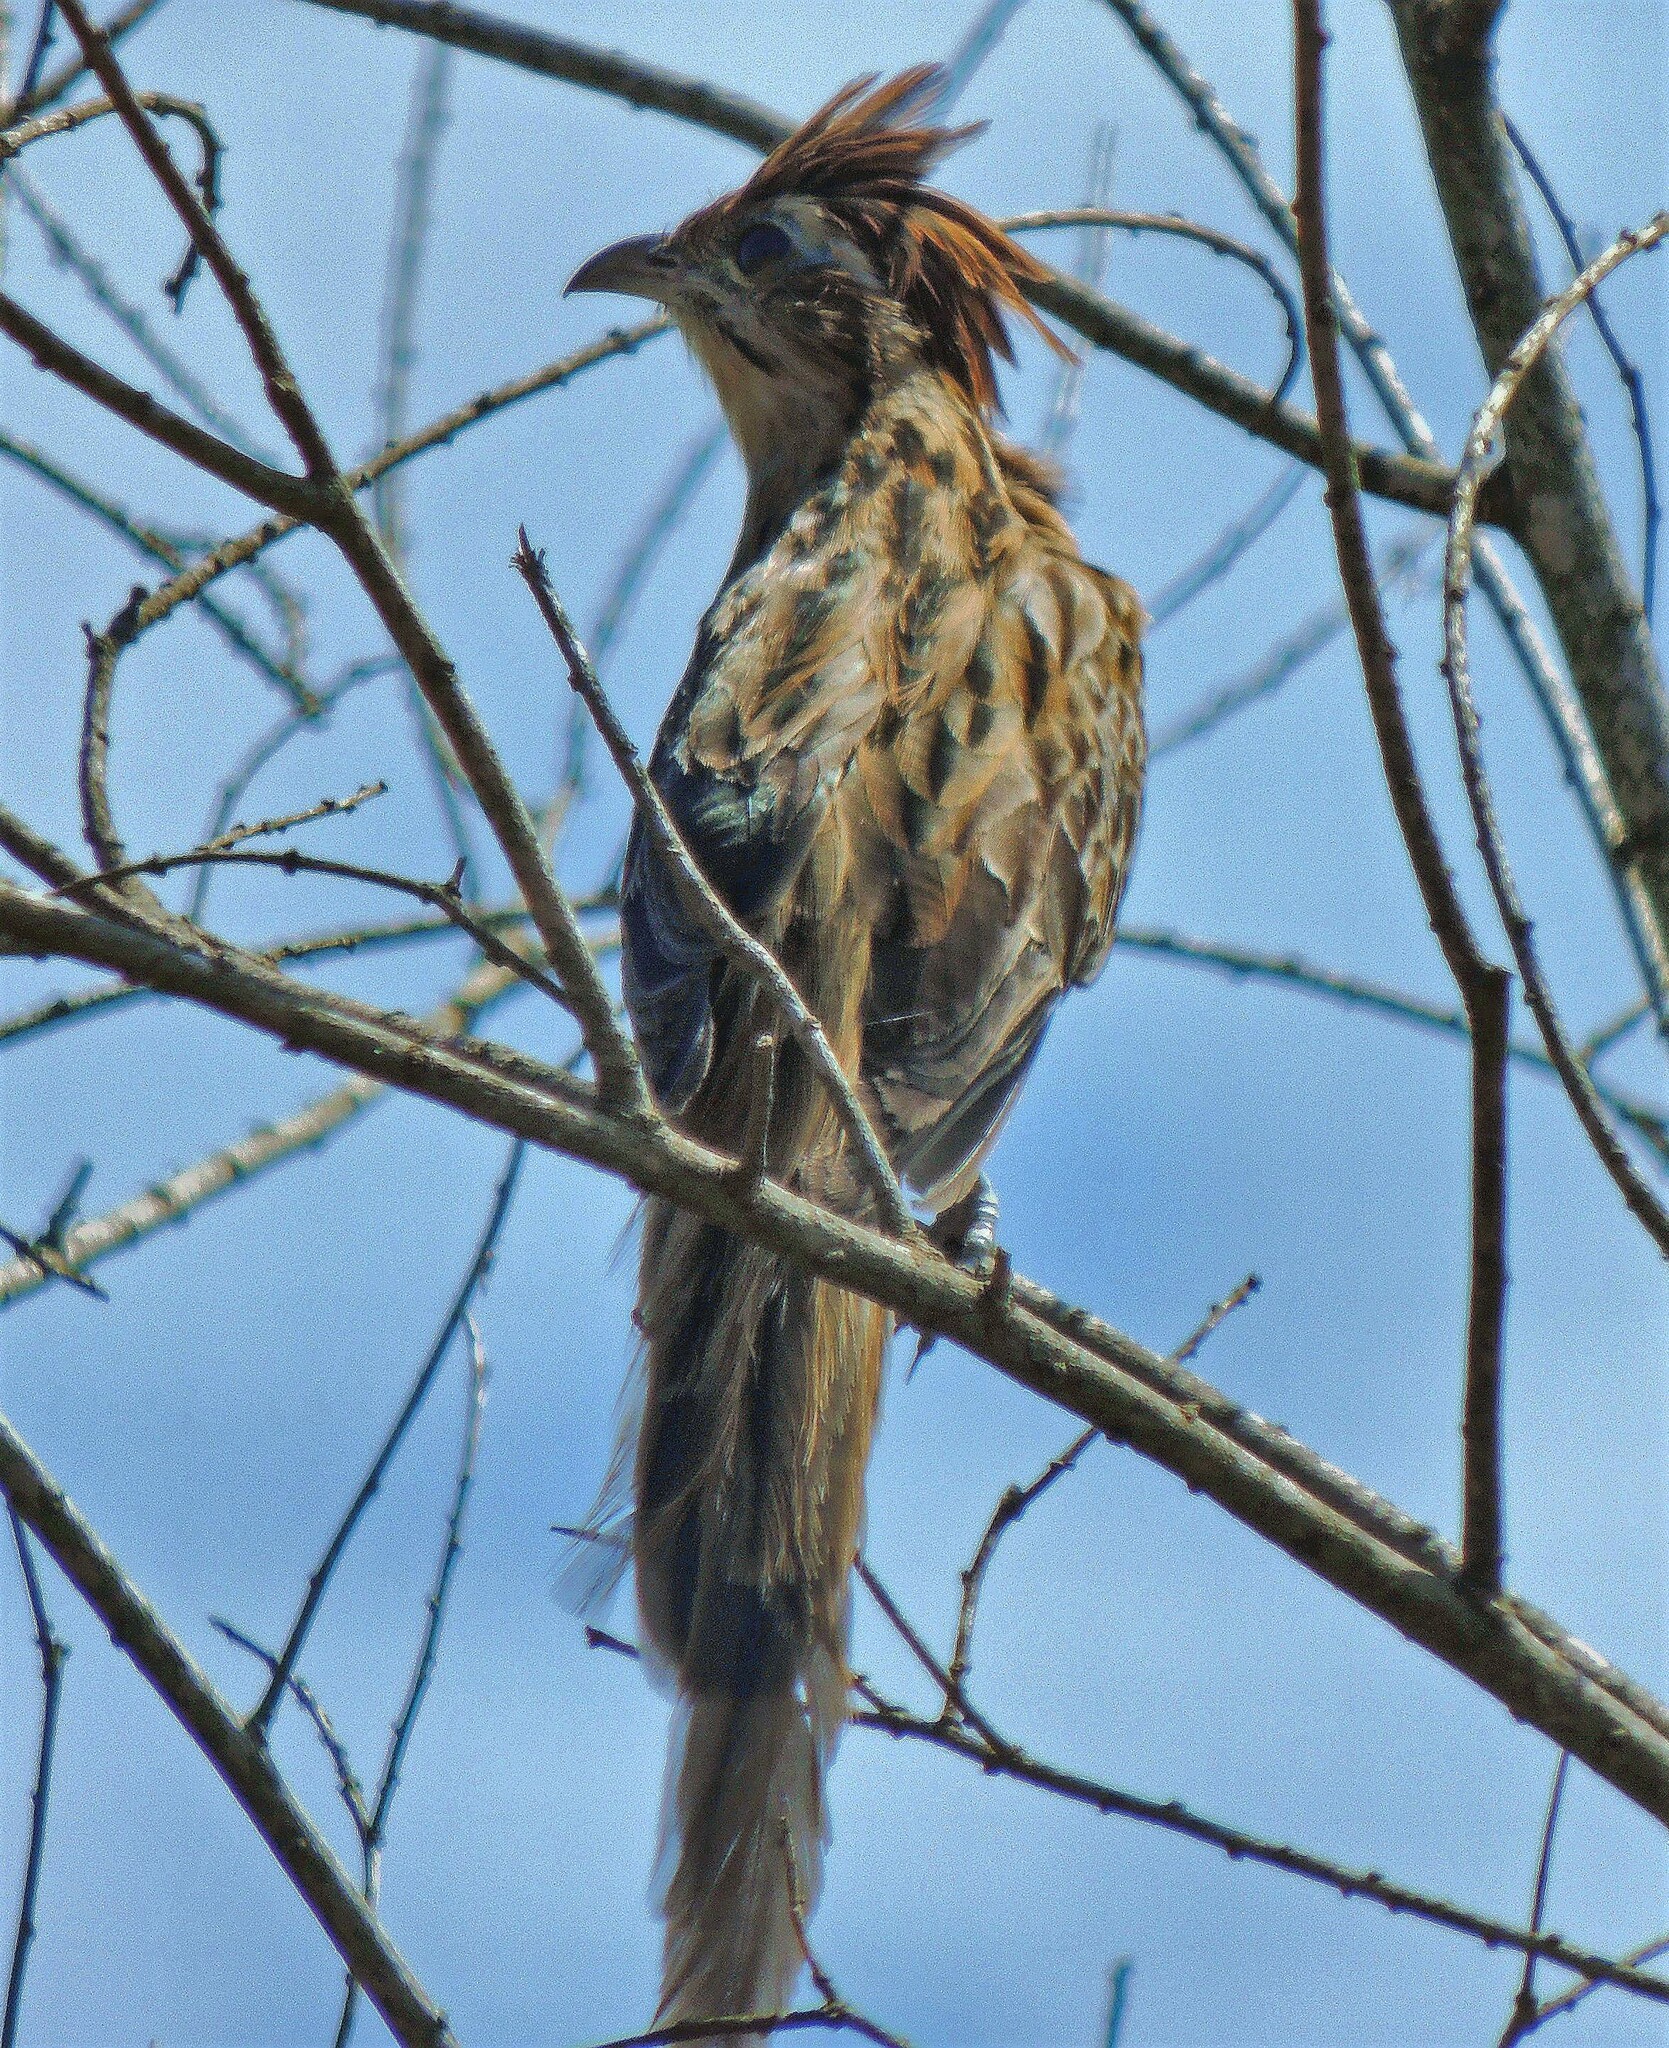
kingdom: Animalia
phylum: Chordata
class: Aves
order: Cuculiformes
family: Cuculidae
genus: Tapera
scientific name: Tapera naevia
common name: Striped cuckoo
